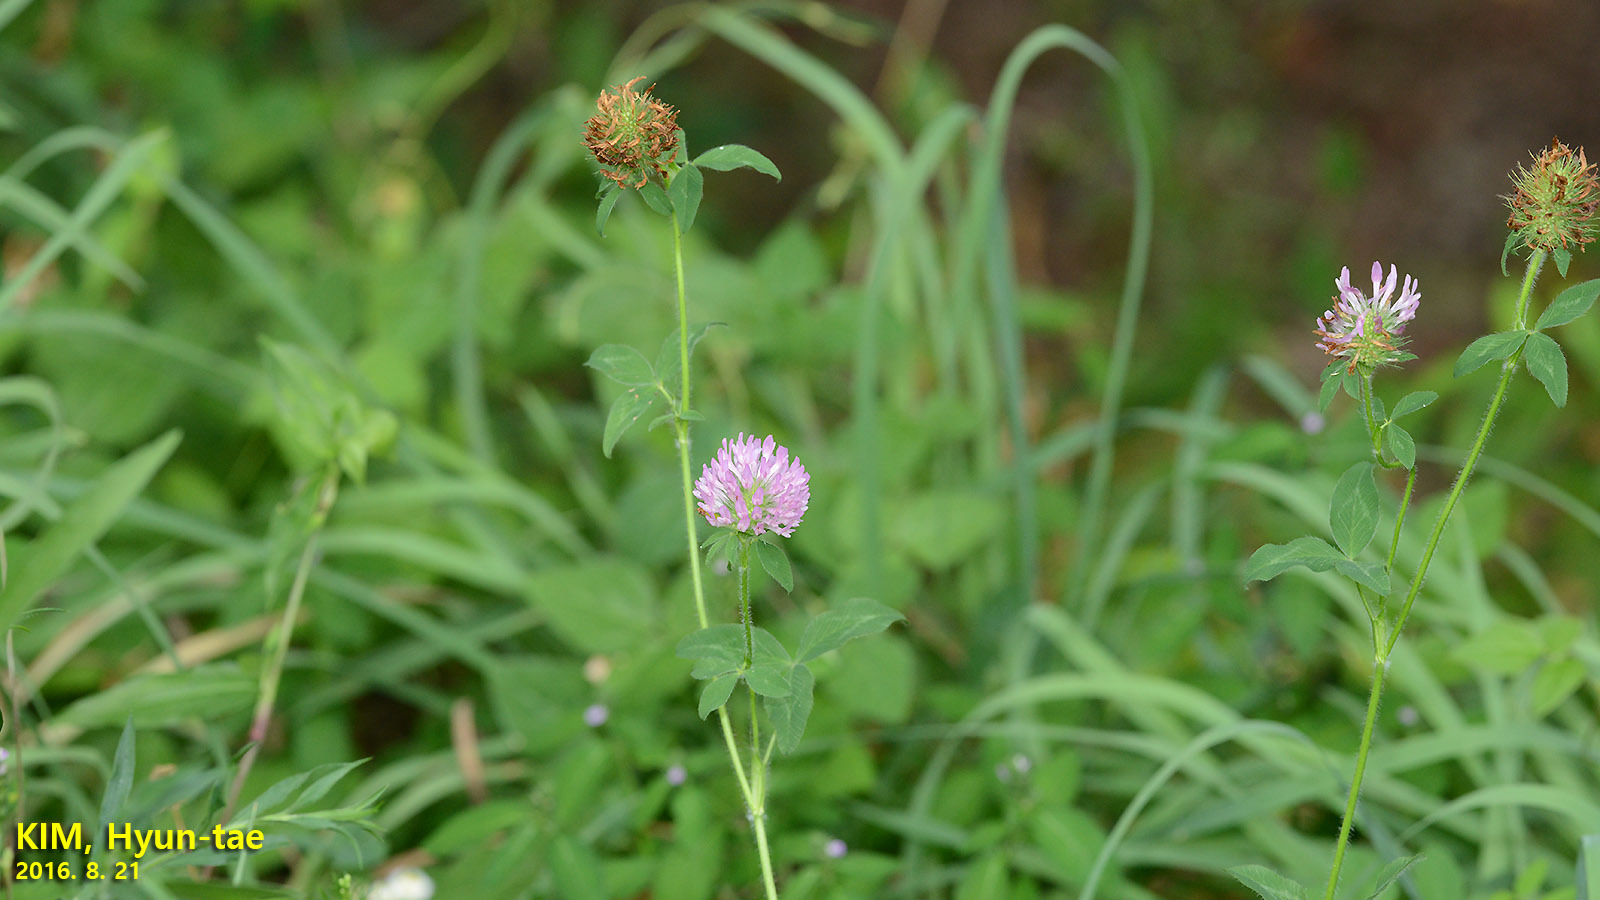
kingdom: Plantae
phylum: Tracheophyta
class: Magnoliopsida
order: Fabales
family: Fabaceae
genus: Trifolium
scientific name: Trifolium pratense
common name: Red clover
